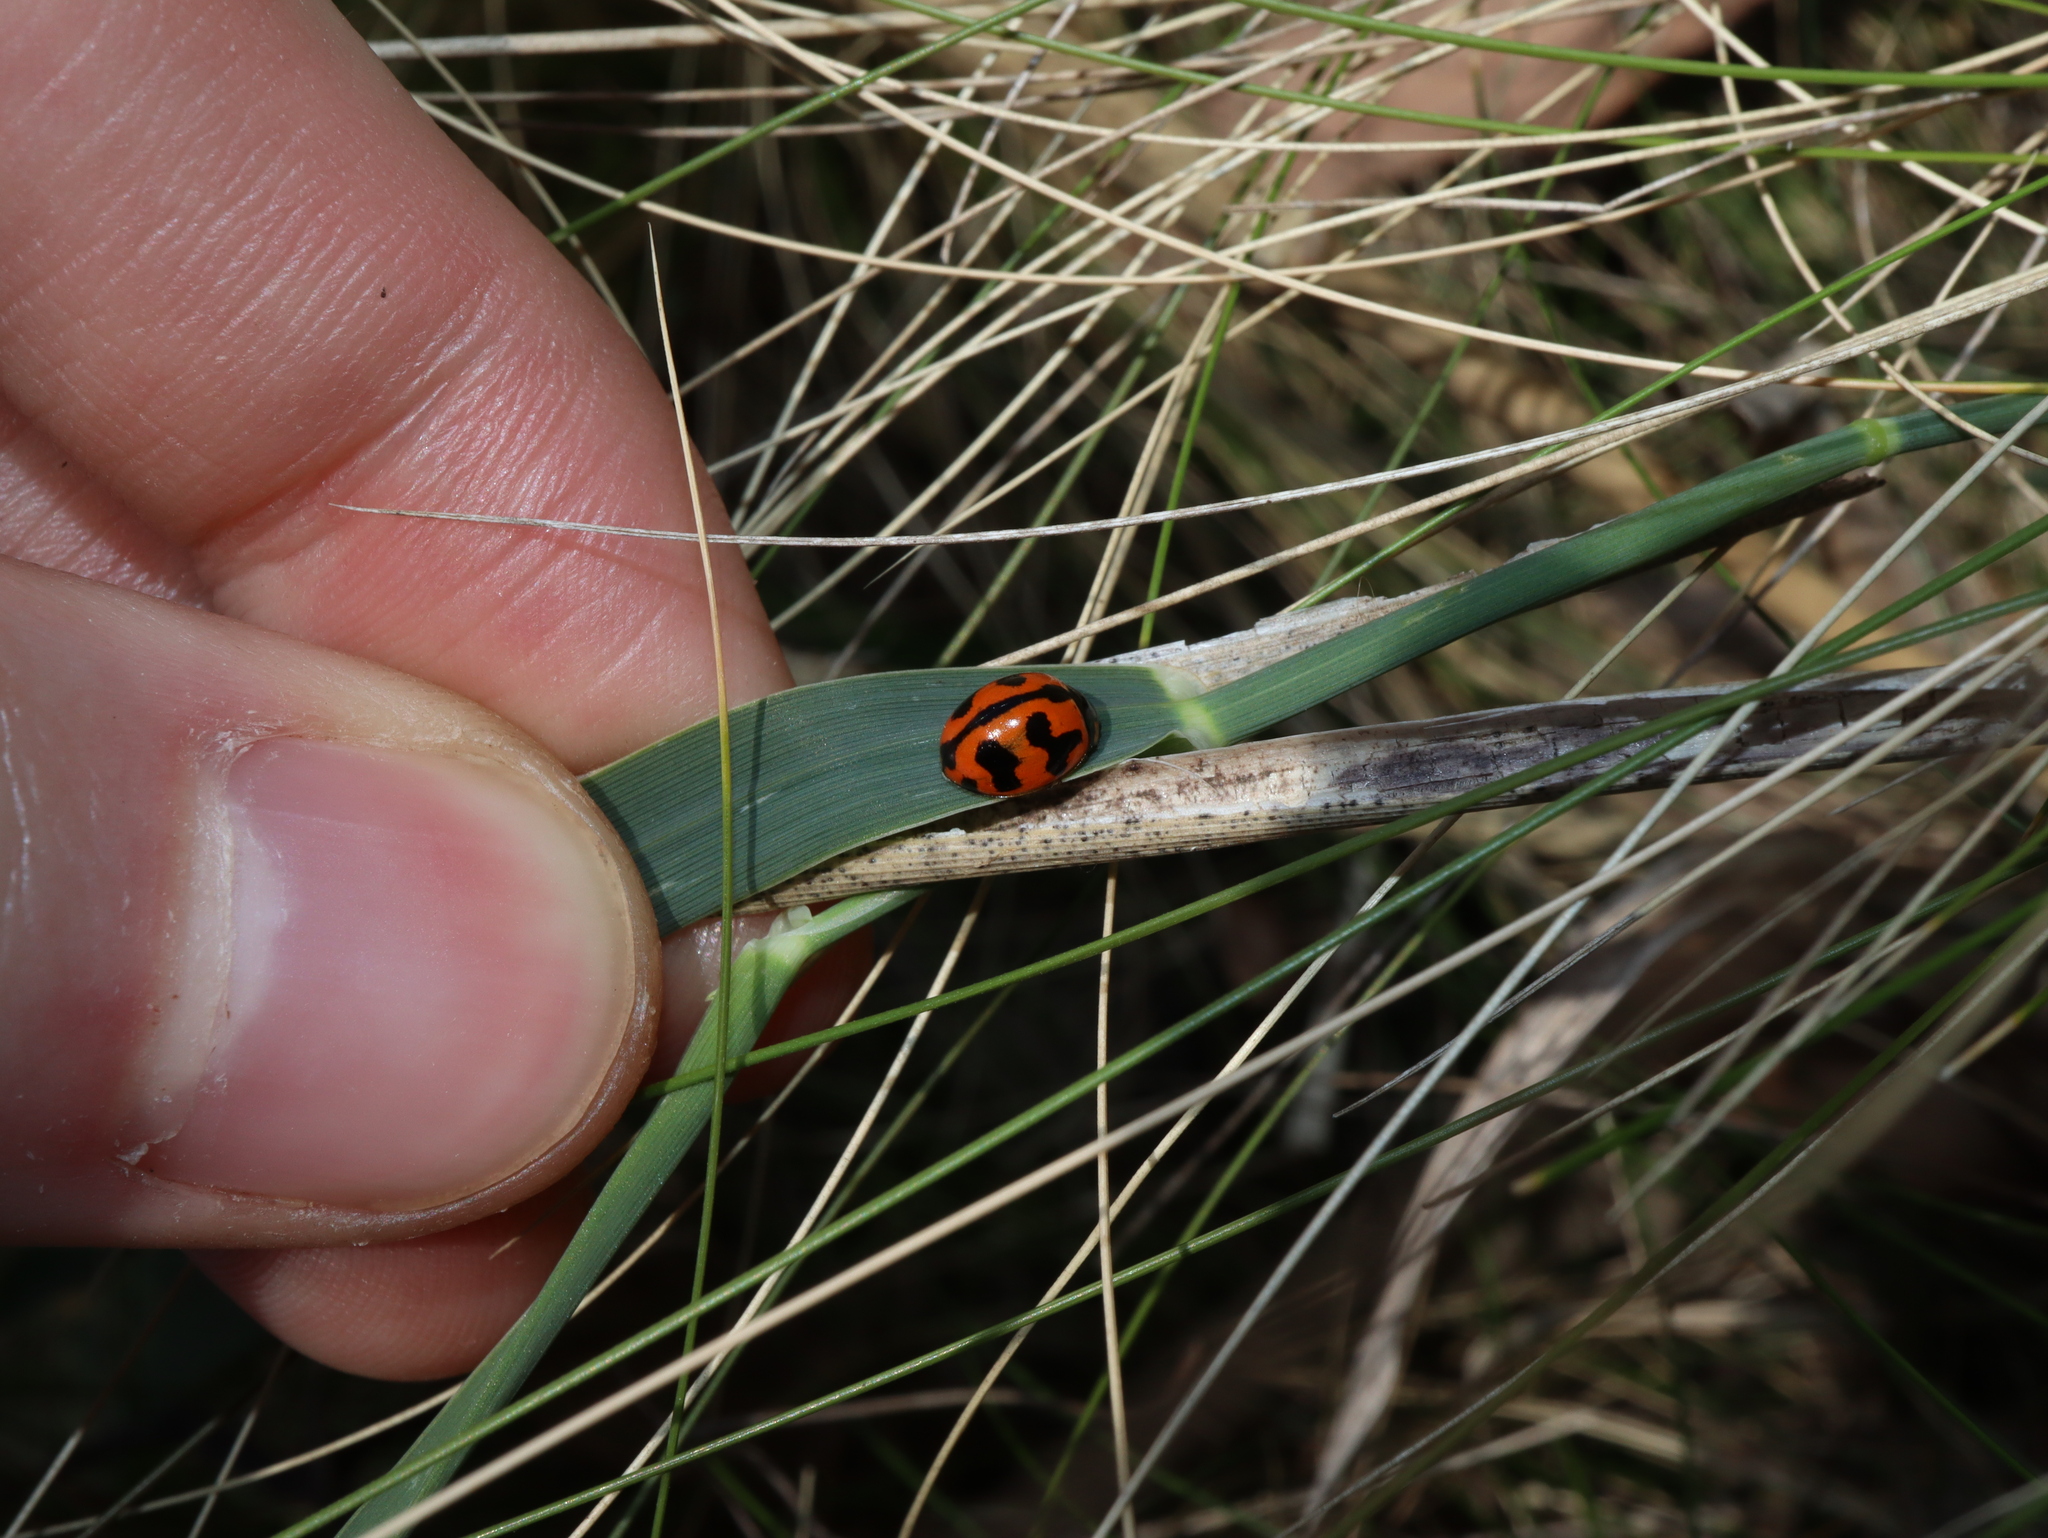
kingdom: Animalia
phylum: Arthropoda
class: Insecta
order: Coleoptera
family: Coccinellidae
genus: Coccinella
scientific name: Coccinella transversalis
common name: Transverse lady beetle
